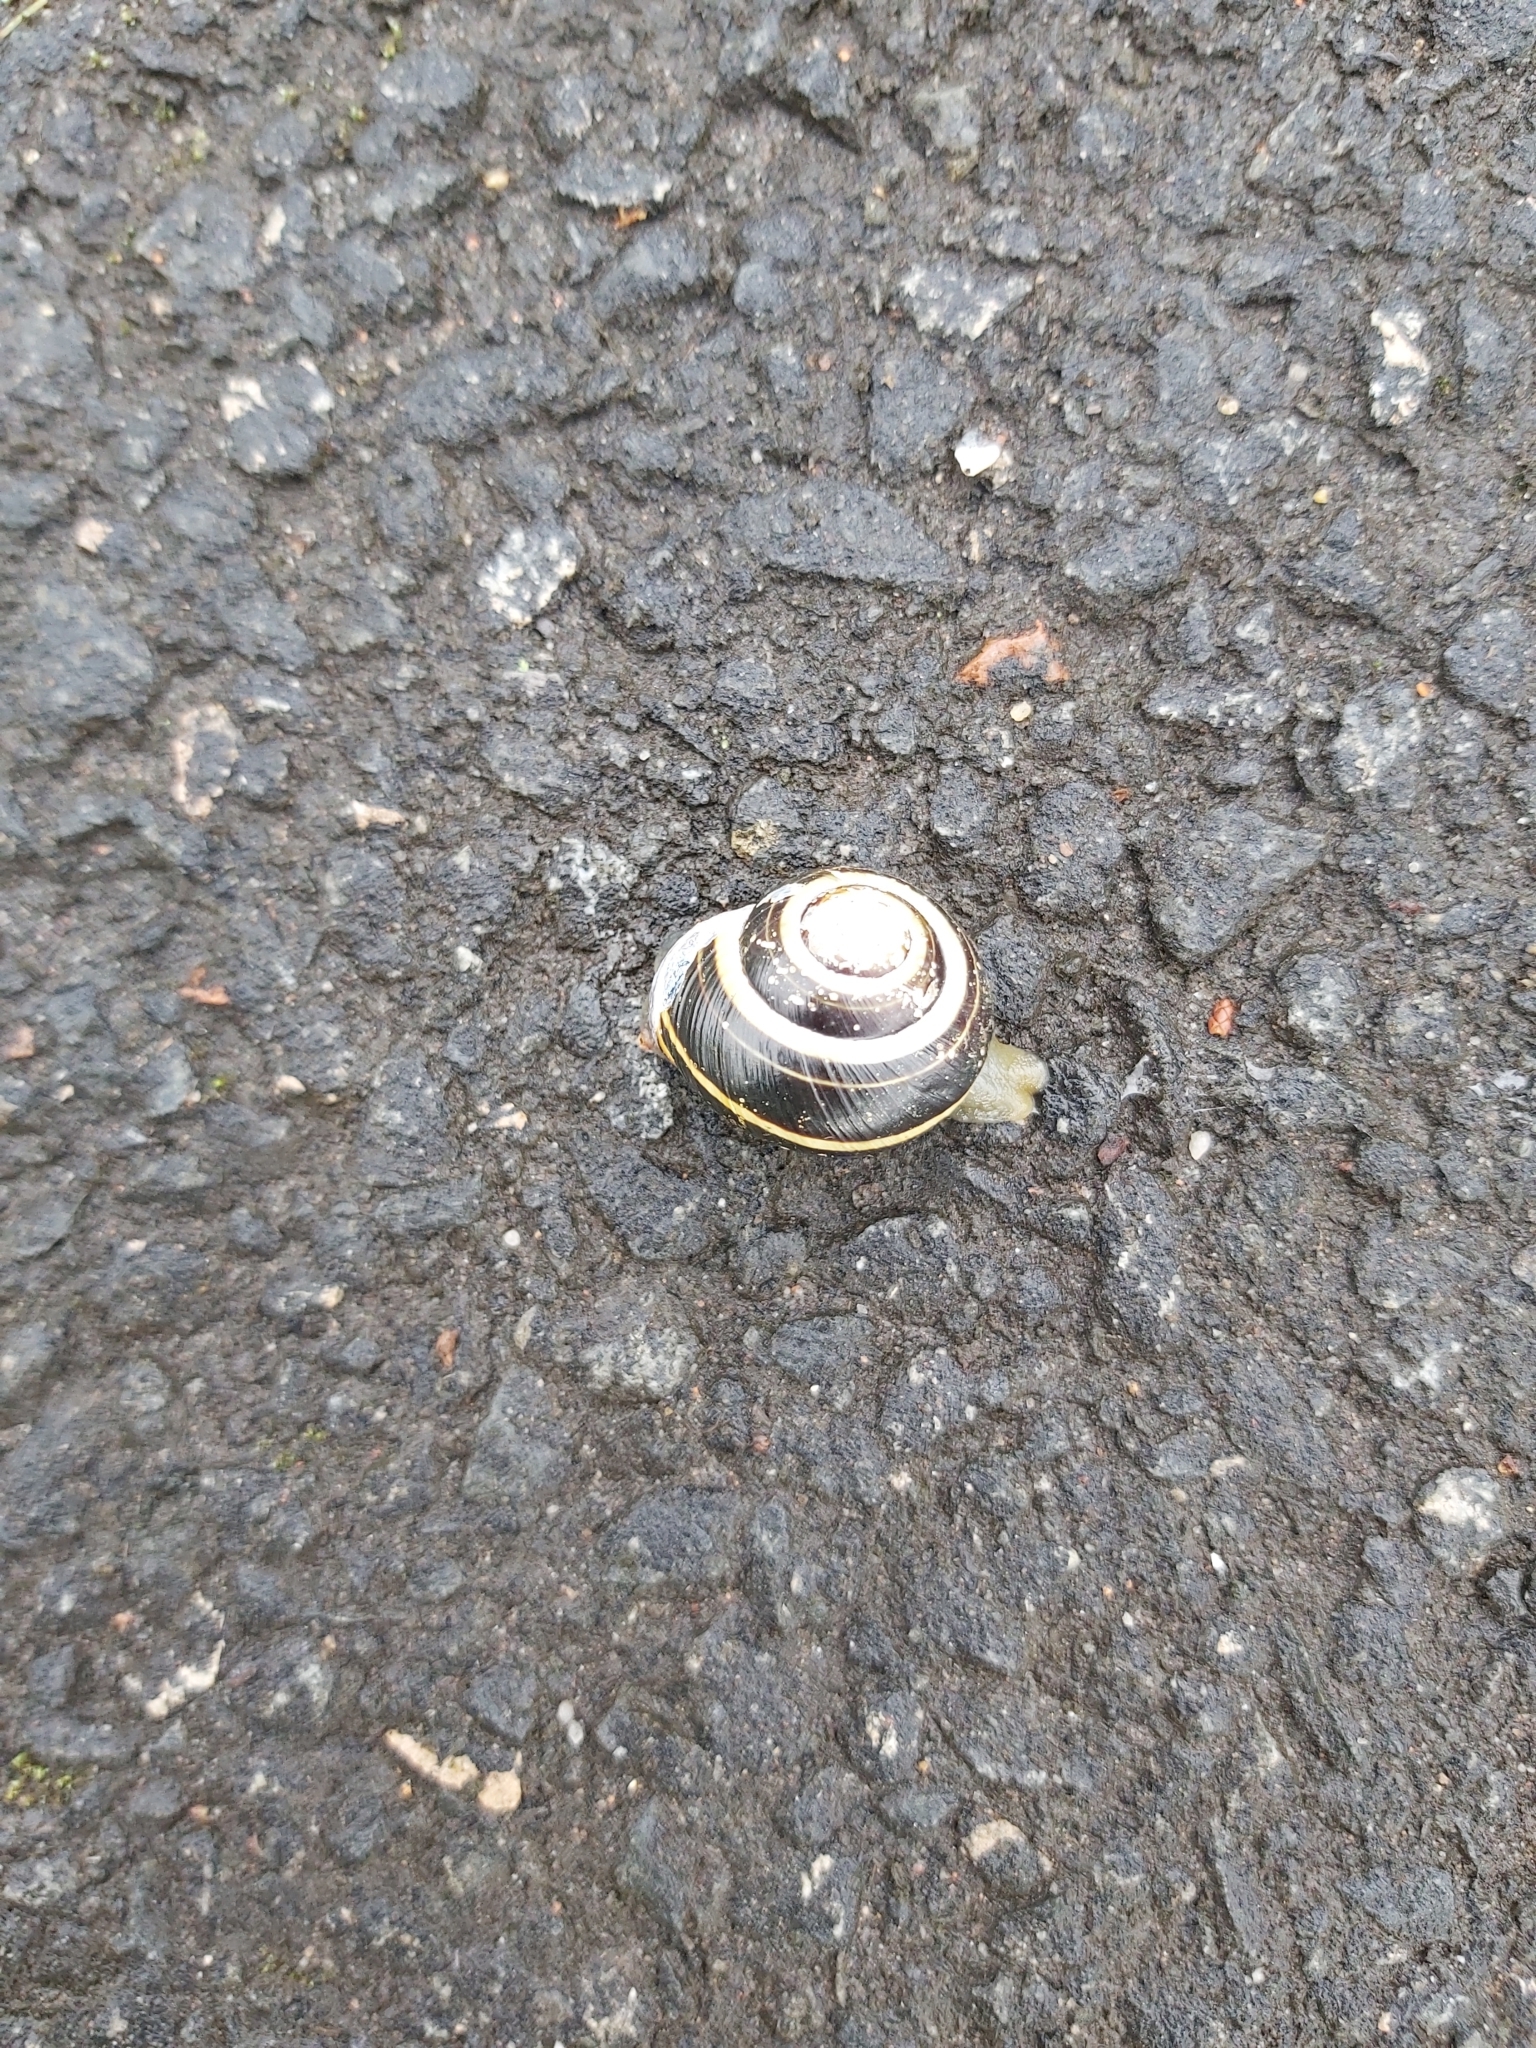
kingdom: Animalia
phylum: Mollusca
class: Gastropoda
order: Stylommatophora
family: Helicidae
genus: Cepaea
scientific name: Cepaea nemoralis
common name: Grovesnail
